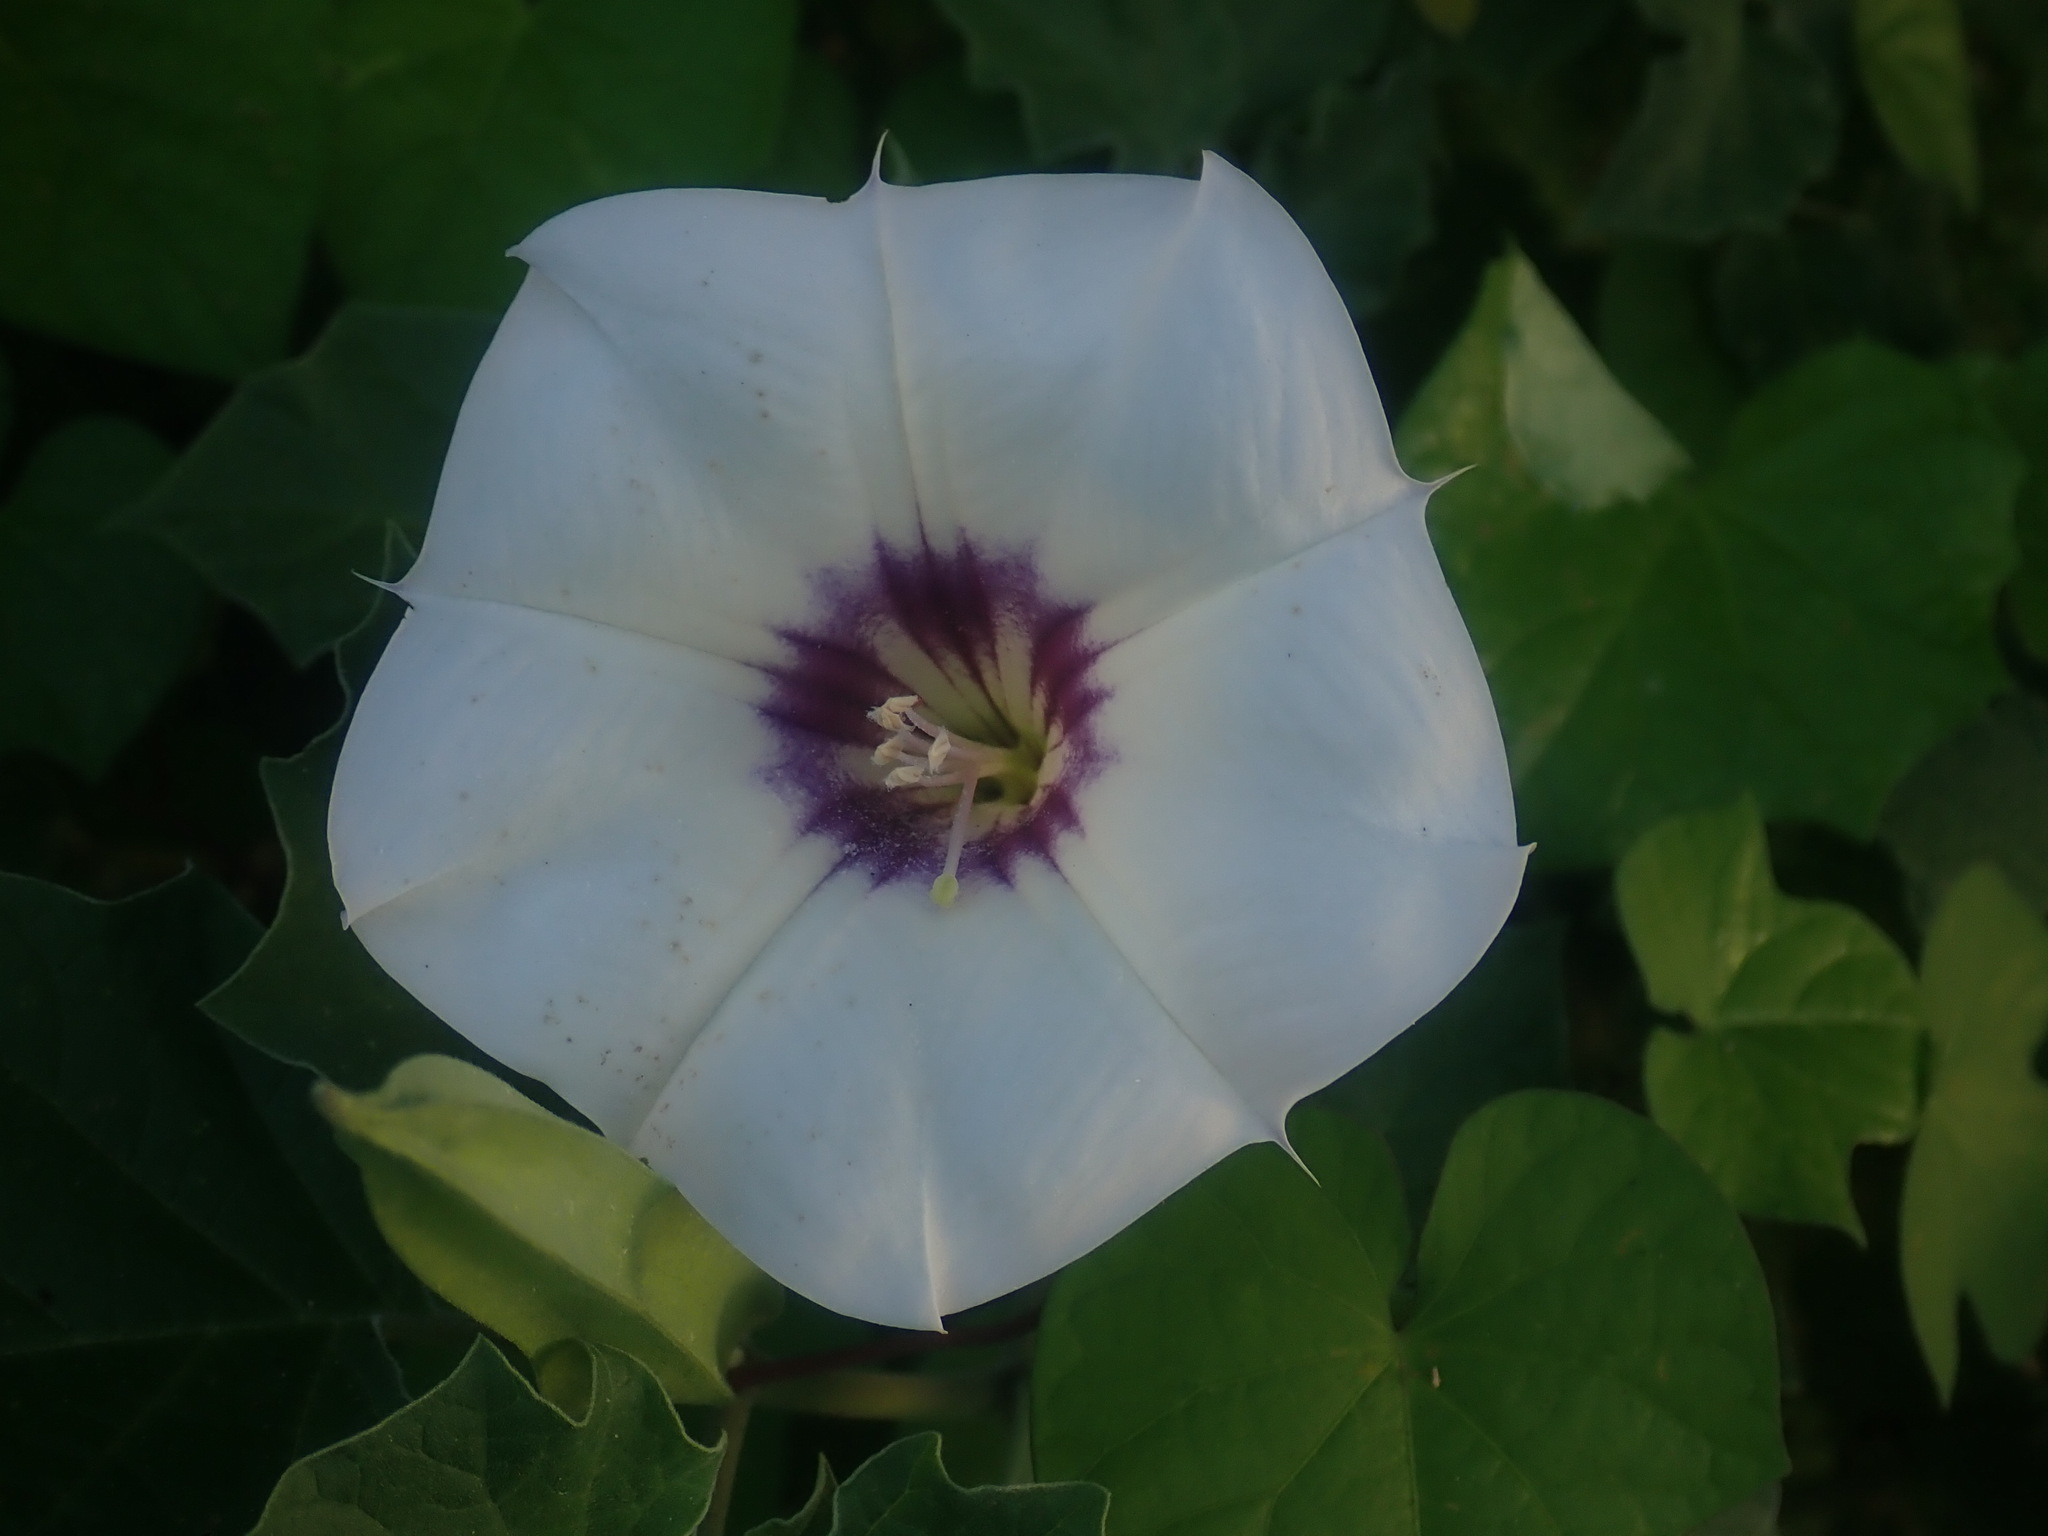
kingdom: Plantae
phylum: Tracheophyta
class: Magnoliopsida
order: Solanales
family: Solanaceae
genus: Datura
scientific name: Datura discolor
